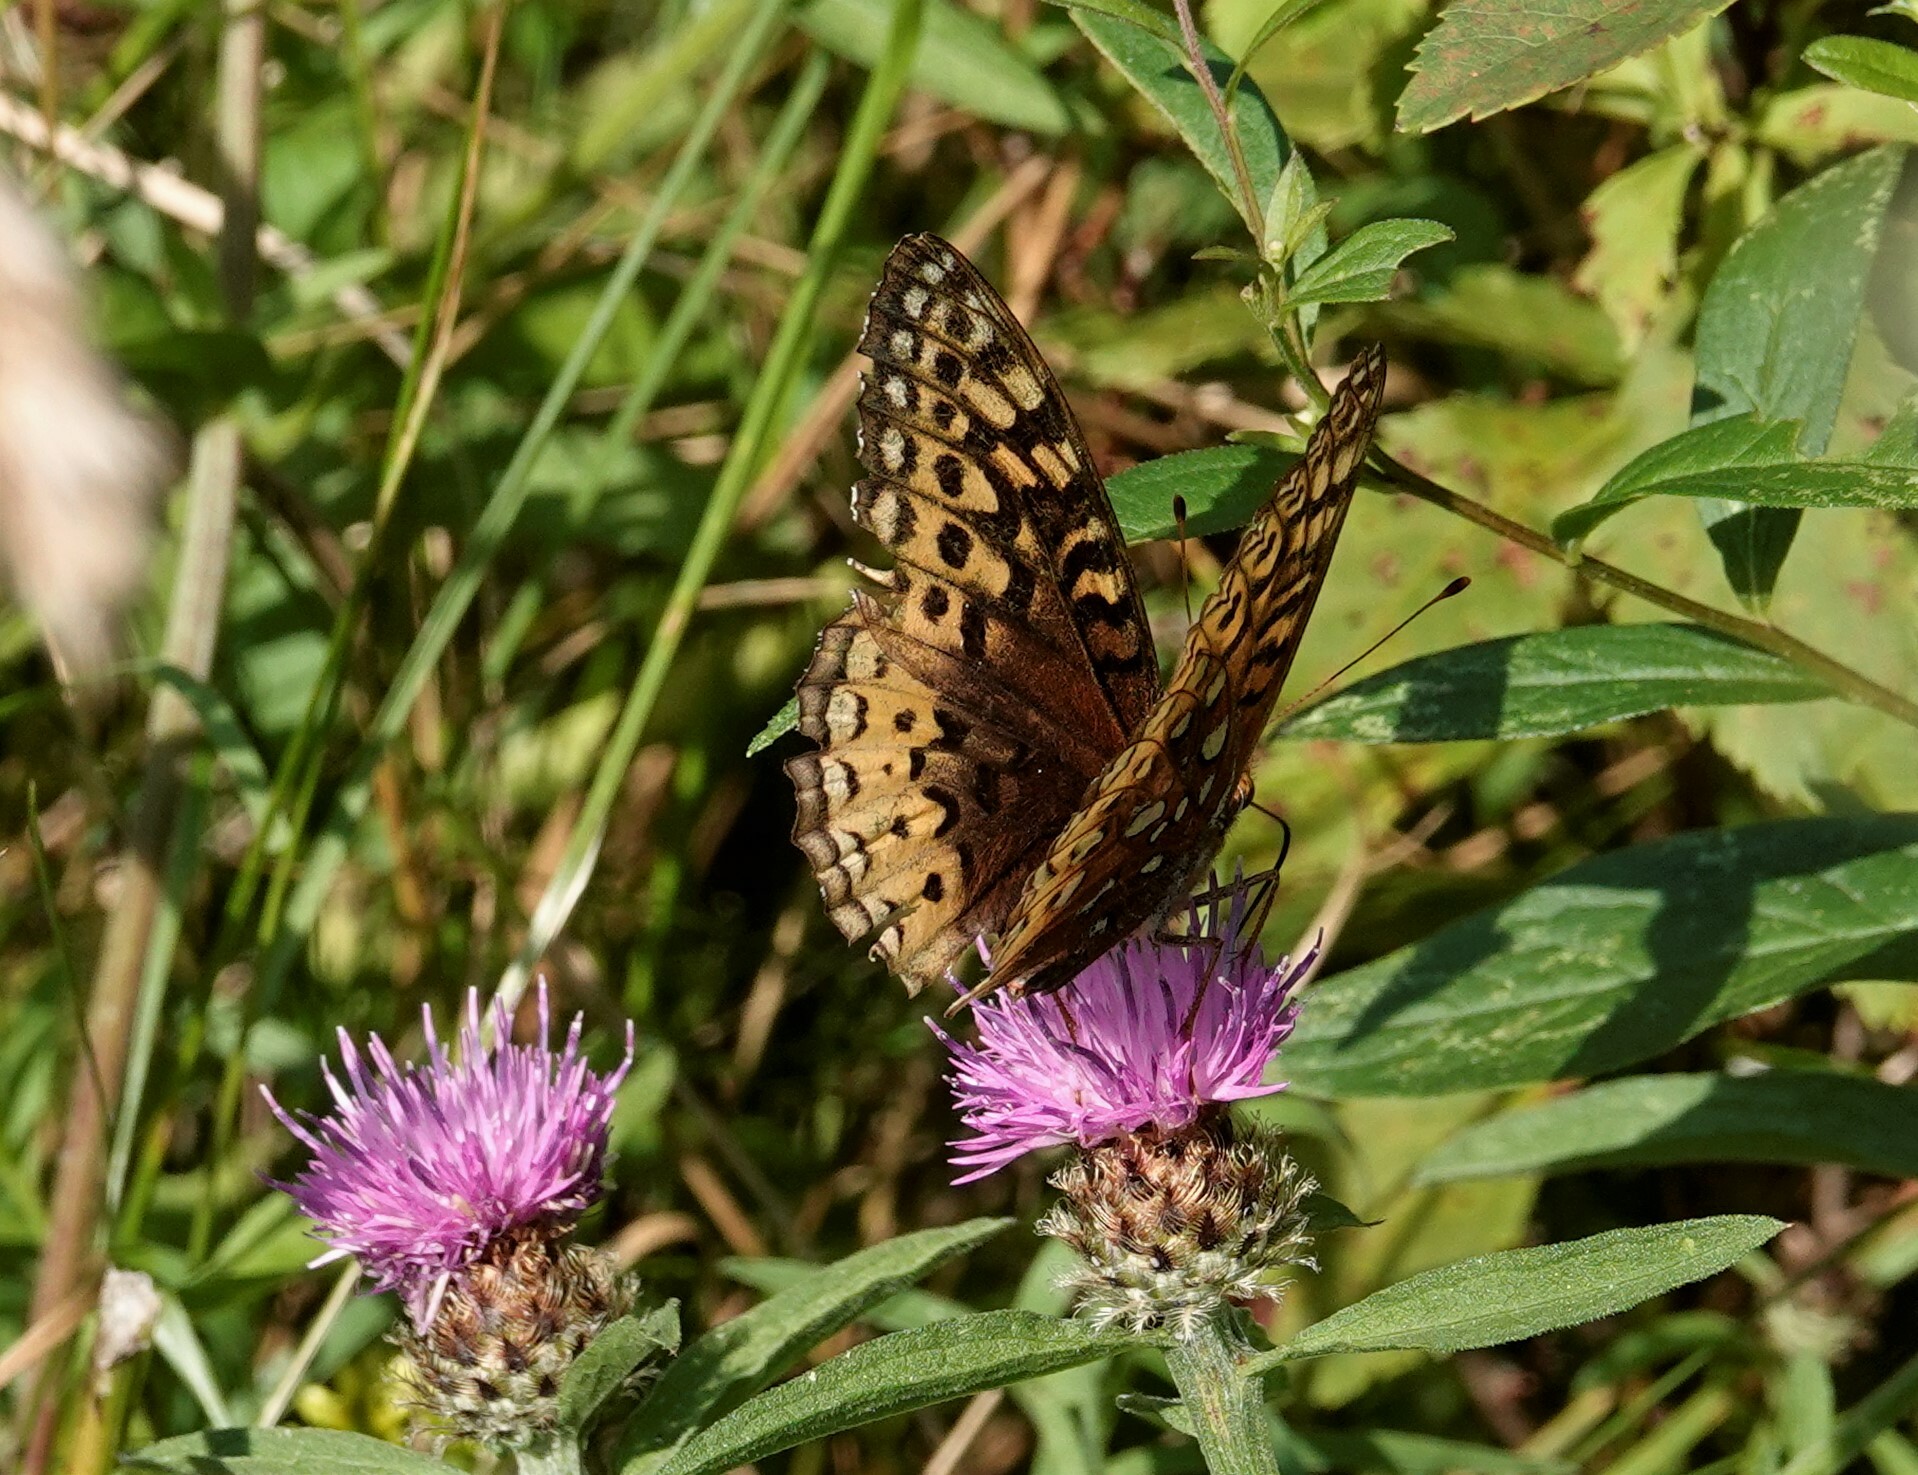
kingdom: Animalia
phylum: Arthropoda
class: Insecta
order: Lepidoptera
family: Nymphalidae
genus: Speyeria
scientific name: Speyeria cybele
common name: Great spangled fritillary
